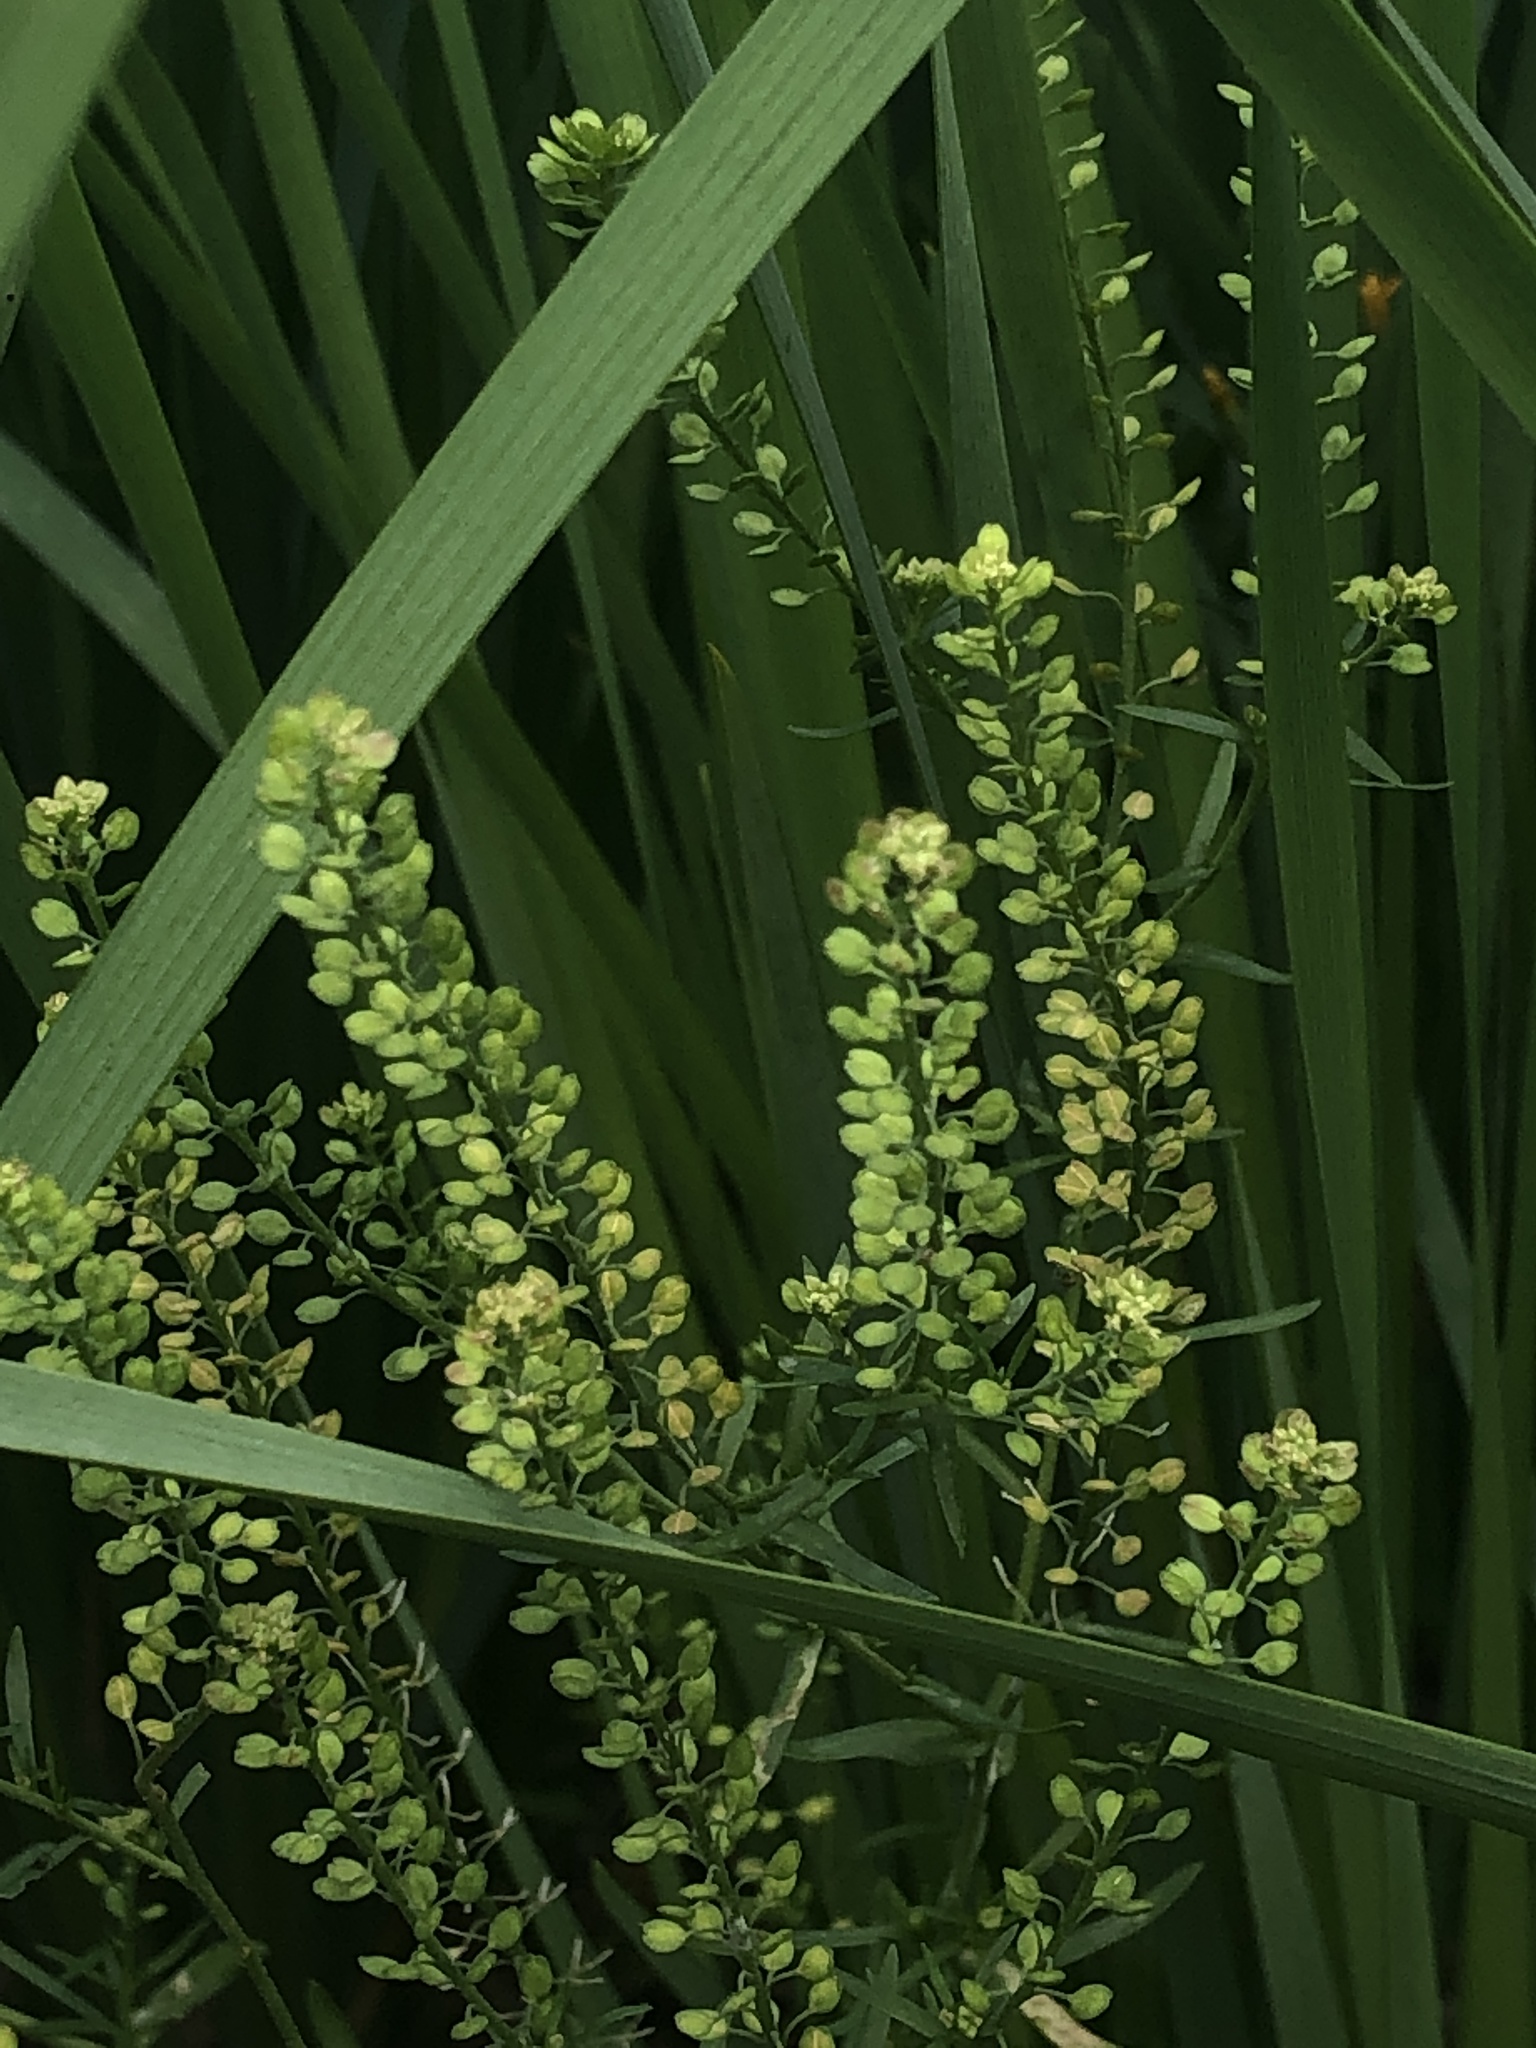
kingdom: Plantae
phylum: Tracheophyta
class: Magnoliopsida
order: Brassicales
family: Brassicaceae
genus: Lepidium
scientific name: Lepidium virginicum
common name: Least pepperwort
